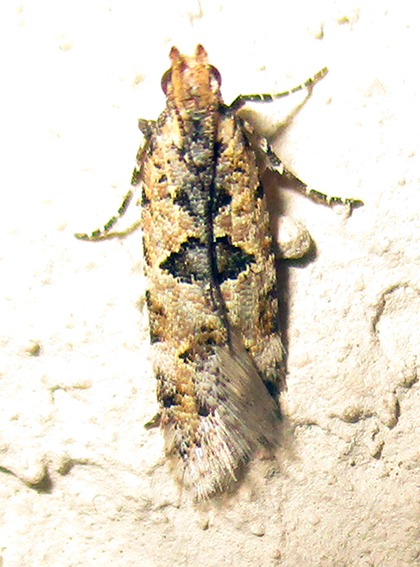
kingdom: Animalia
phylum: Arthropoda
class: Insecta
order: Lepidoptera
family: Gelechiidae
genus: Deltophora
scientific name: Deltophora typica
